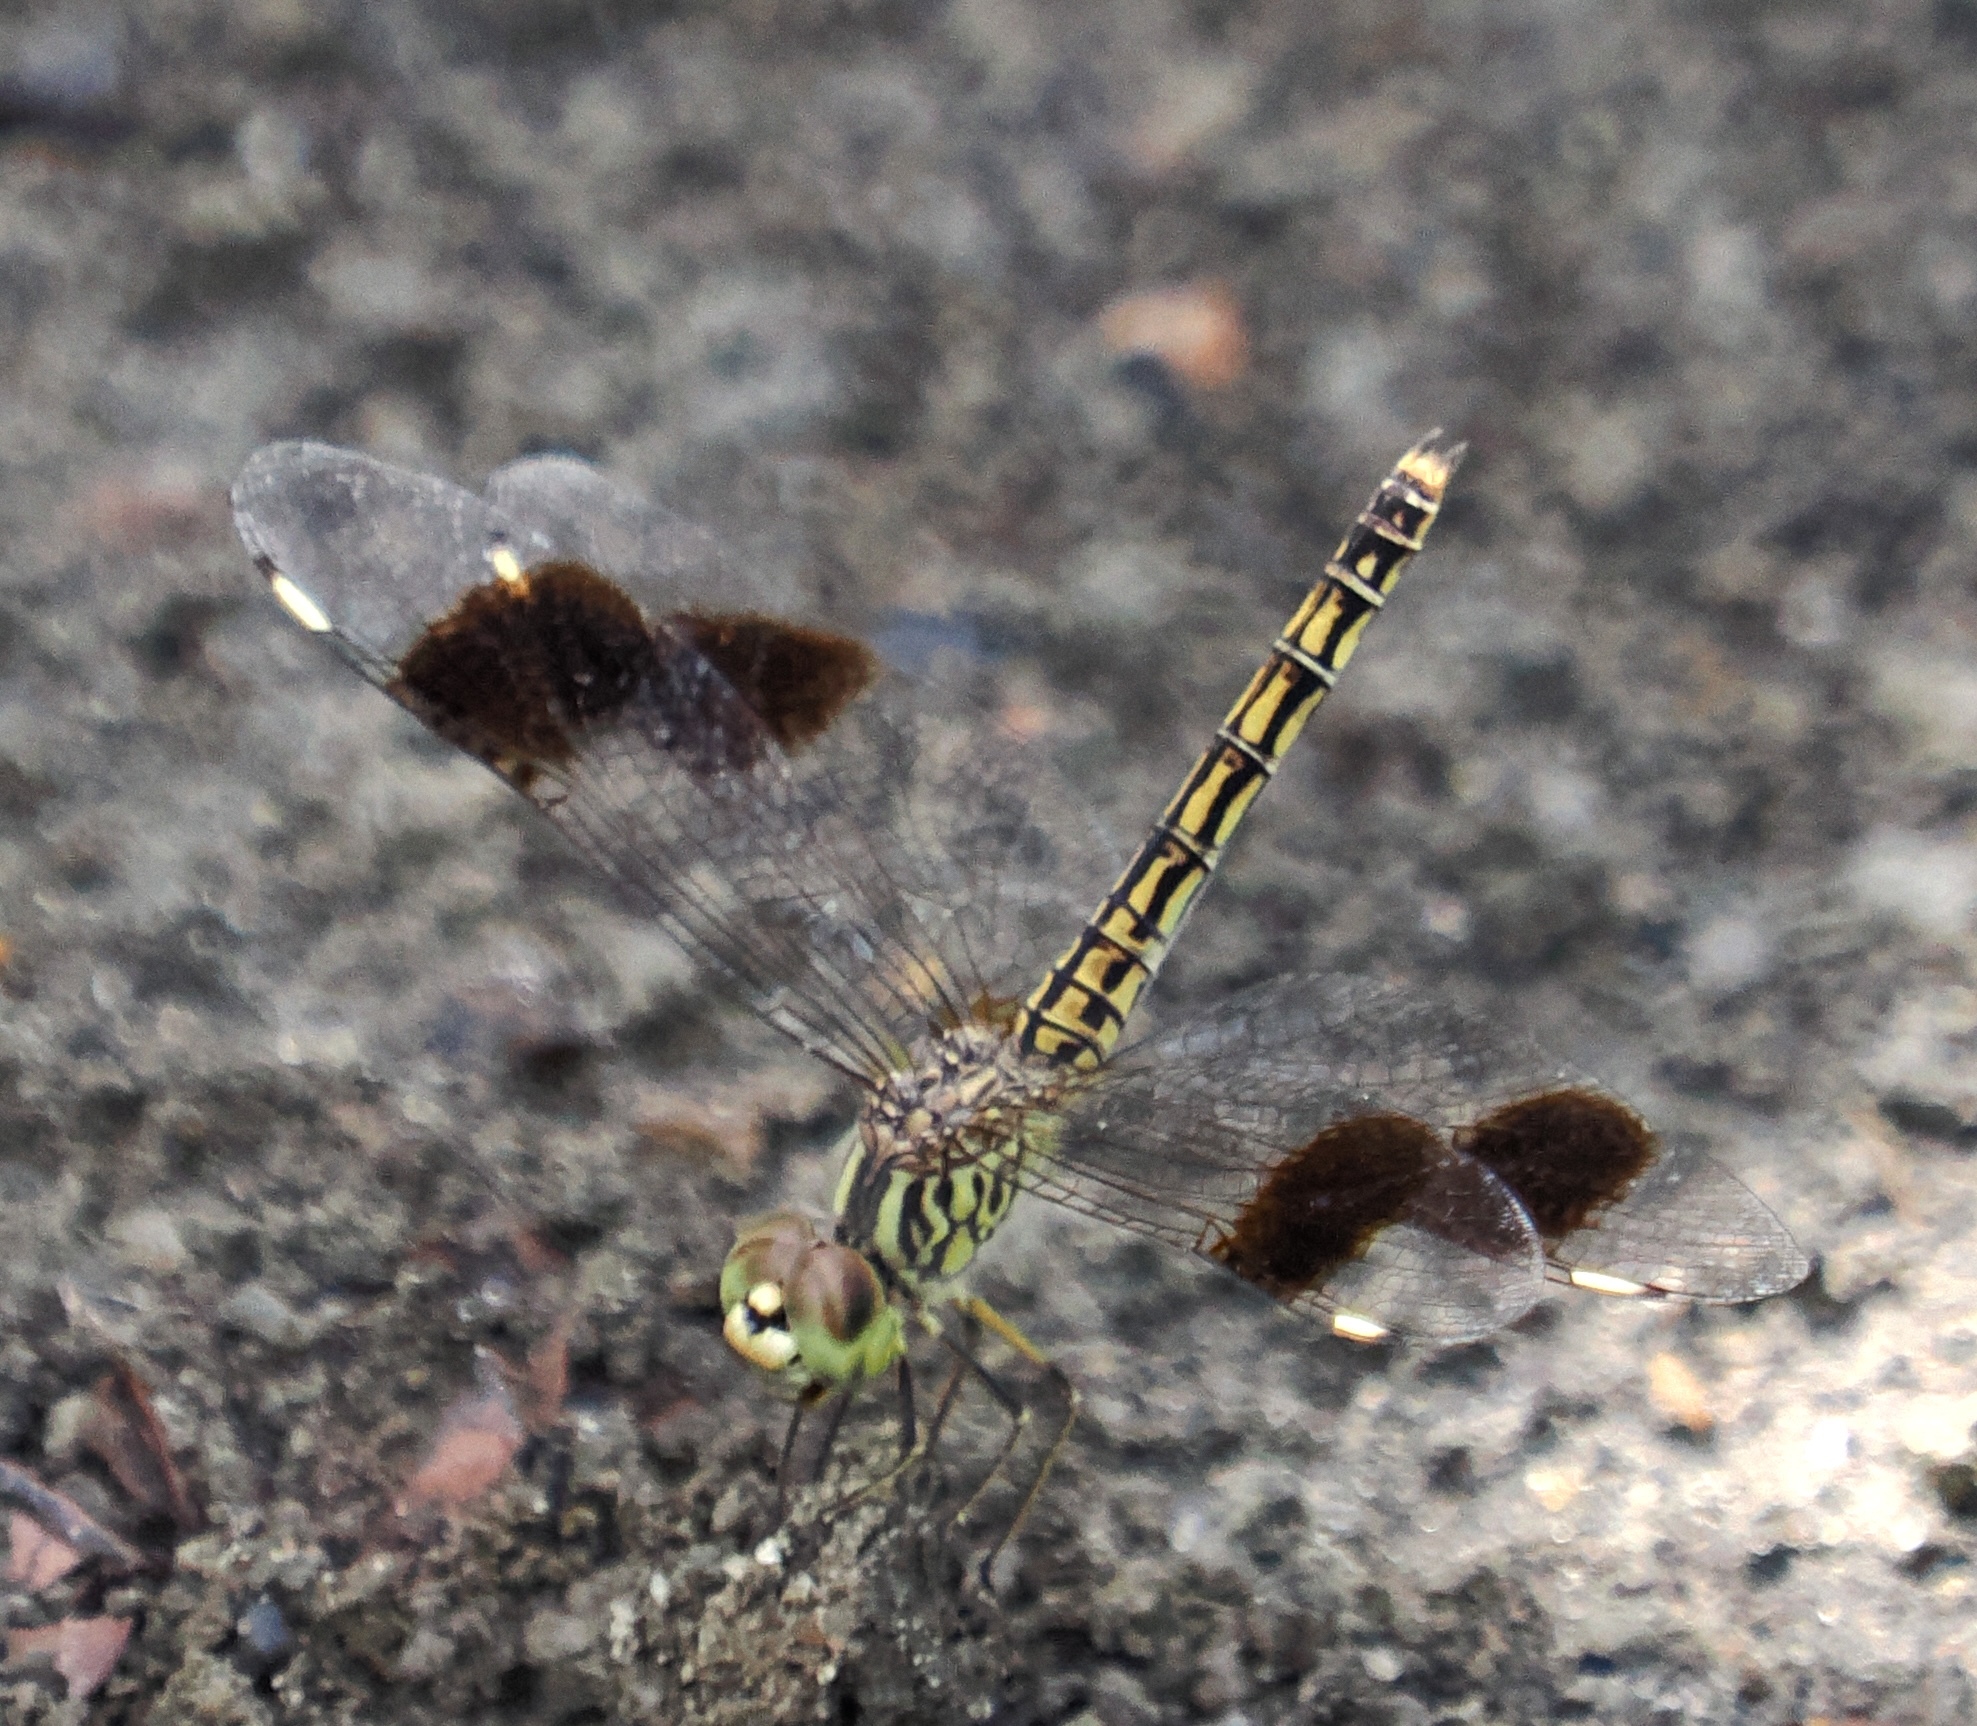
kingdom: Animalia
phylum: Arthropoda
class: Insecta
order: Odonata
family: Libellulidae
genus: Brachythemis
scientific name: Brachythemis leucosticta
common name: Banded groundling
